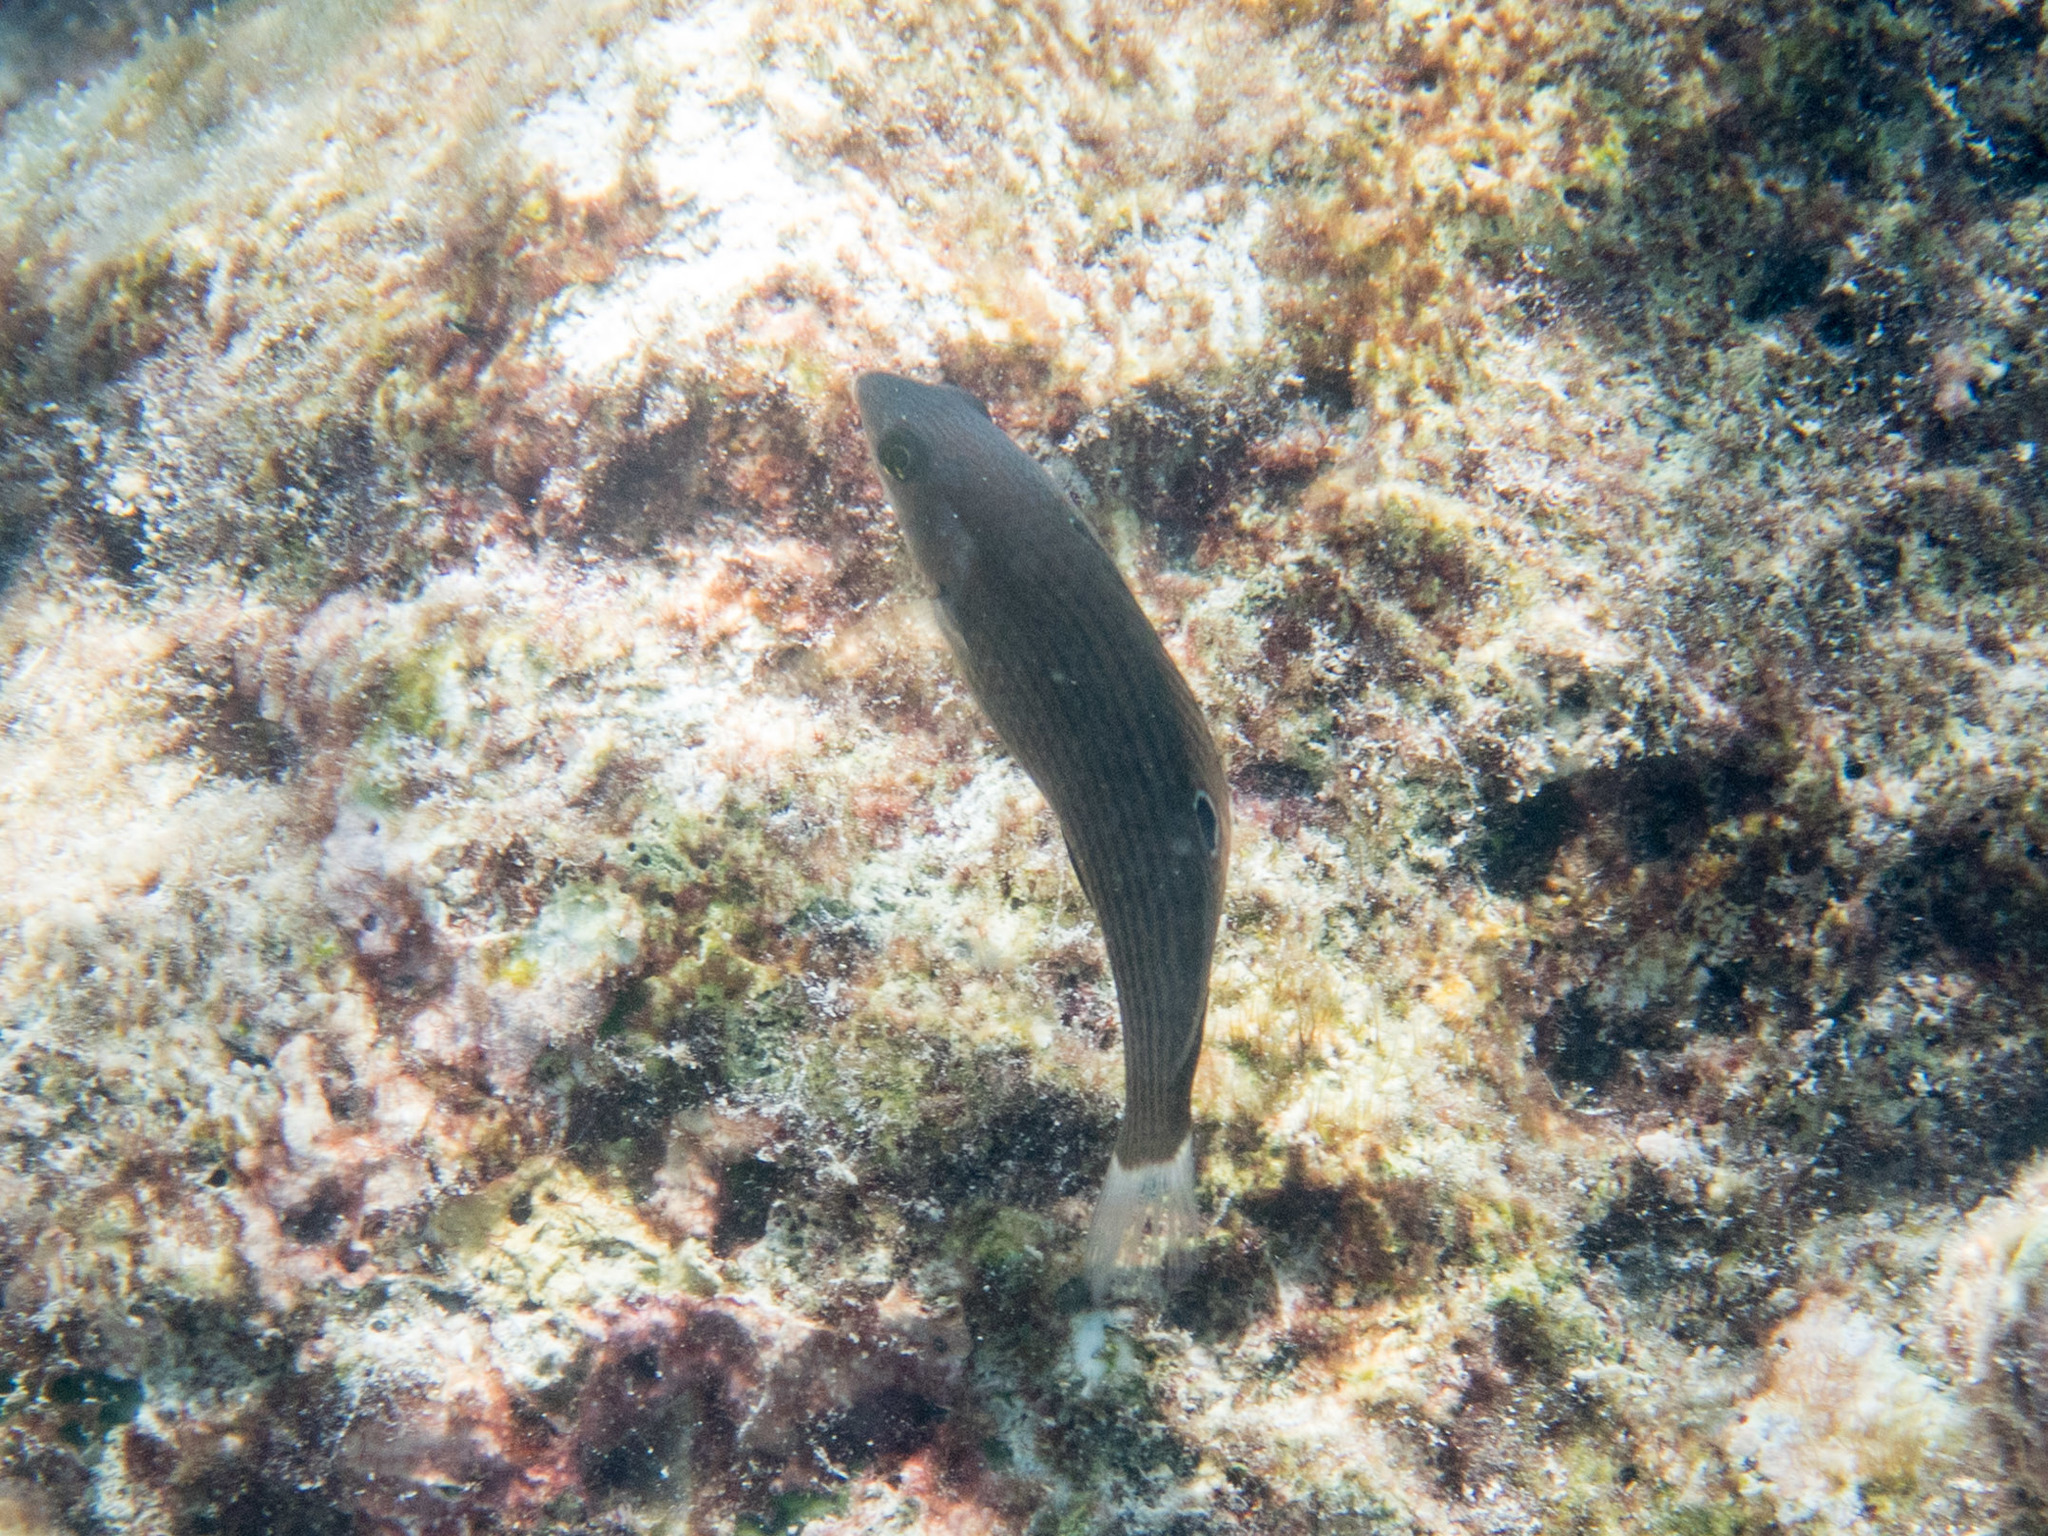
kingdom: Animalia
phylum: Chordata
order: Perciformes
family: Labridae
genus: Halichoeres
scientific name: Halichoeres marginatus
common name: Dusky wrasse
